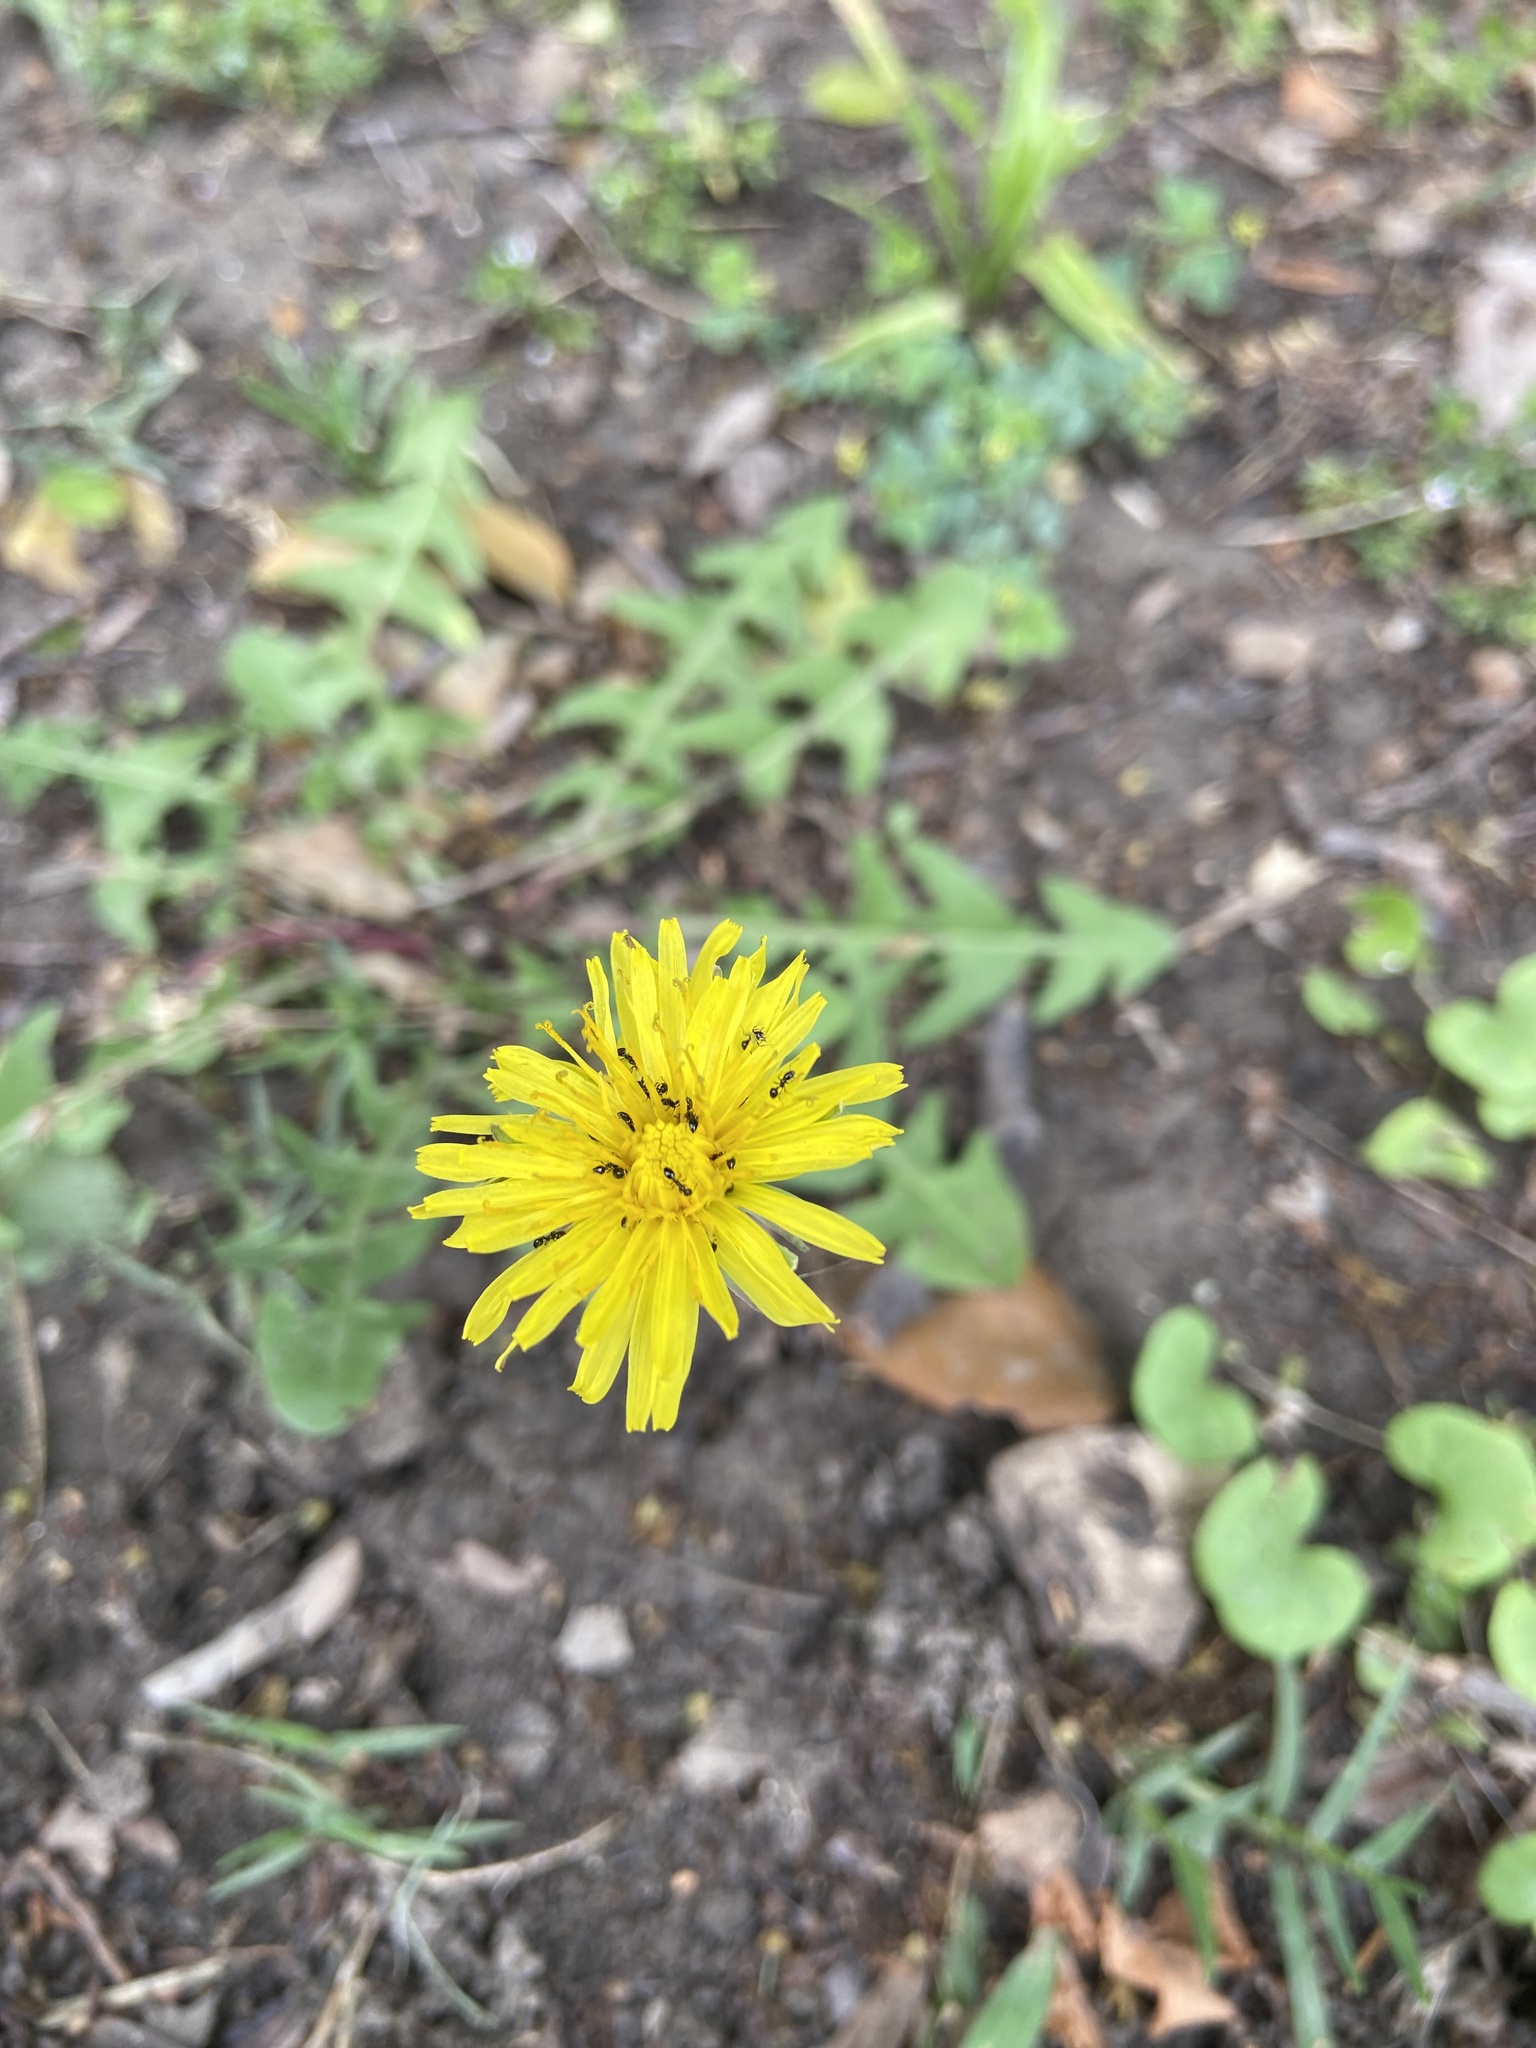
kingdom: Plantae
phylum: Tracheophyta
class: Magnoliopsida
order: Asterales
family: Asteraceae
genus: Taraxacum
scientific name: Taraxacum officinale
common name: Common dandelion
